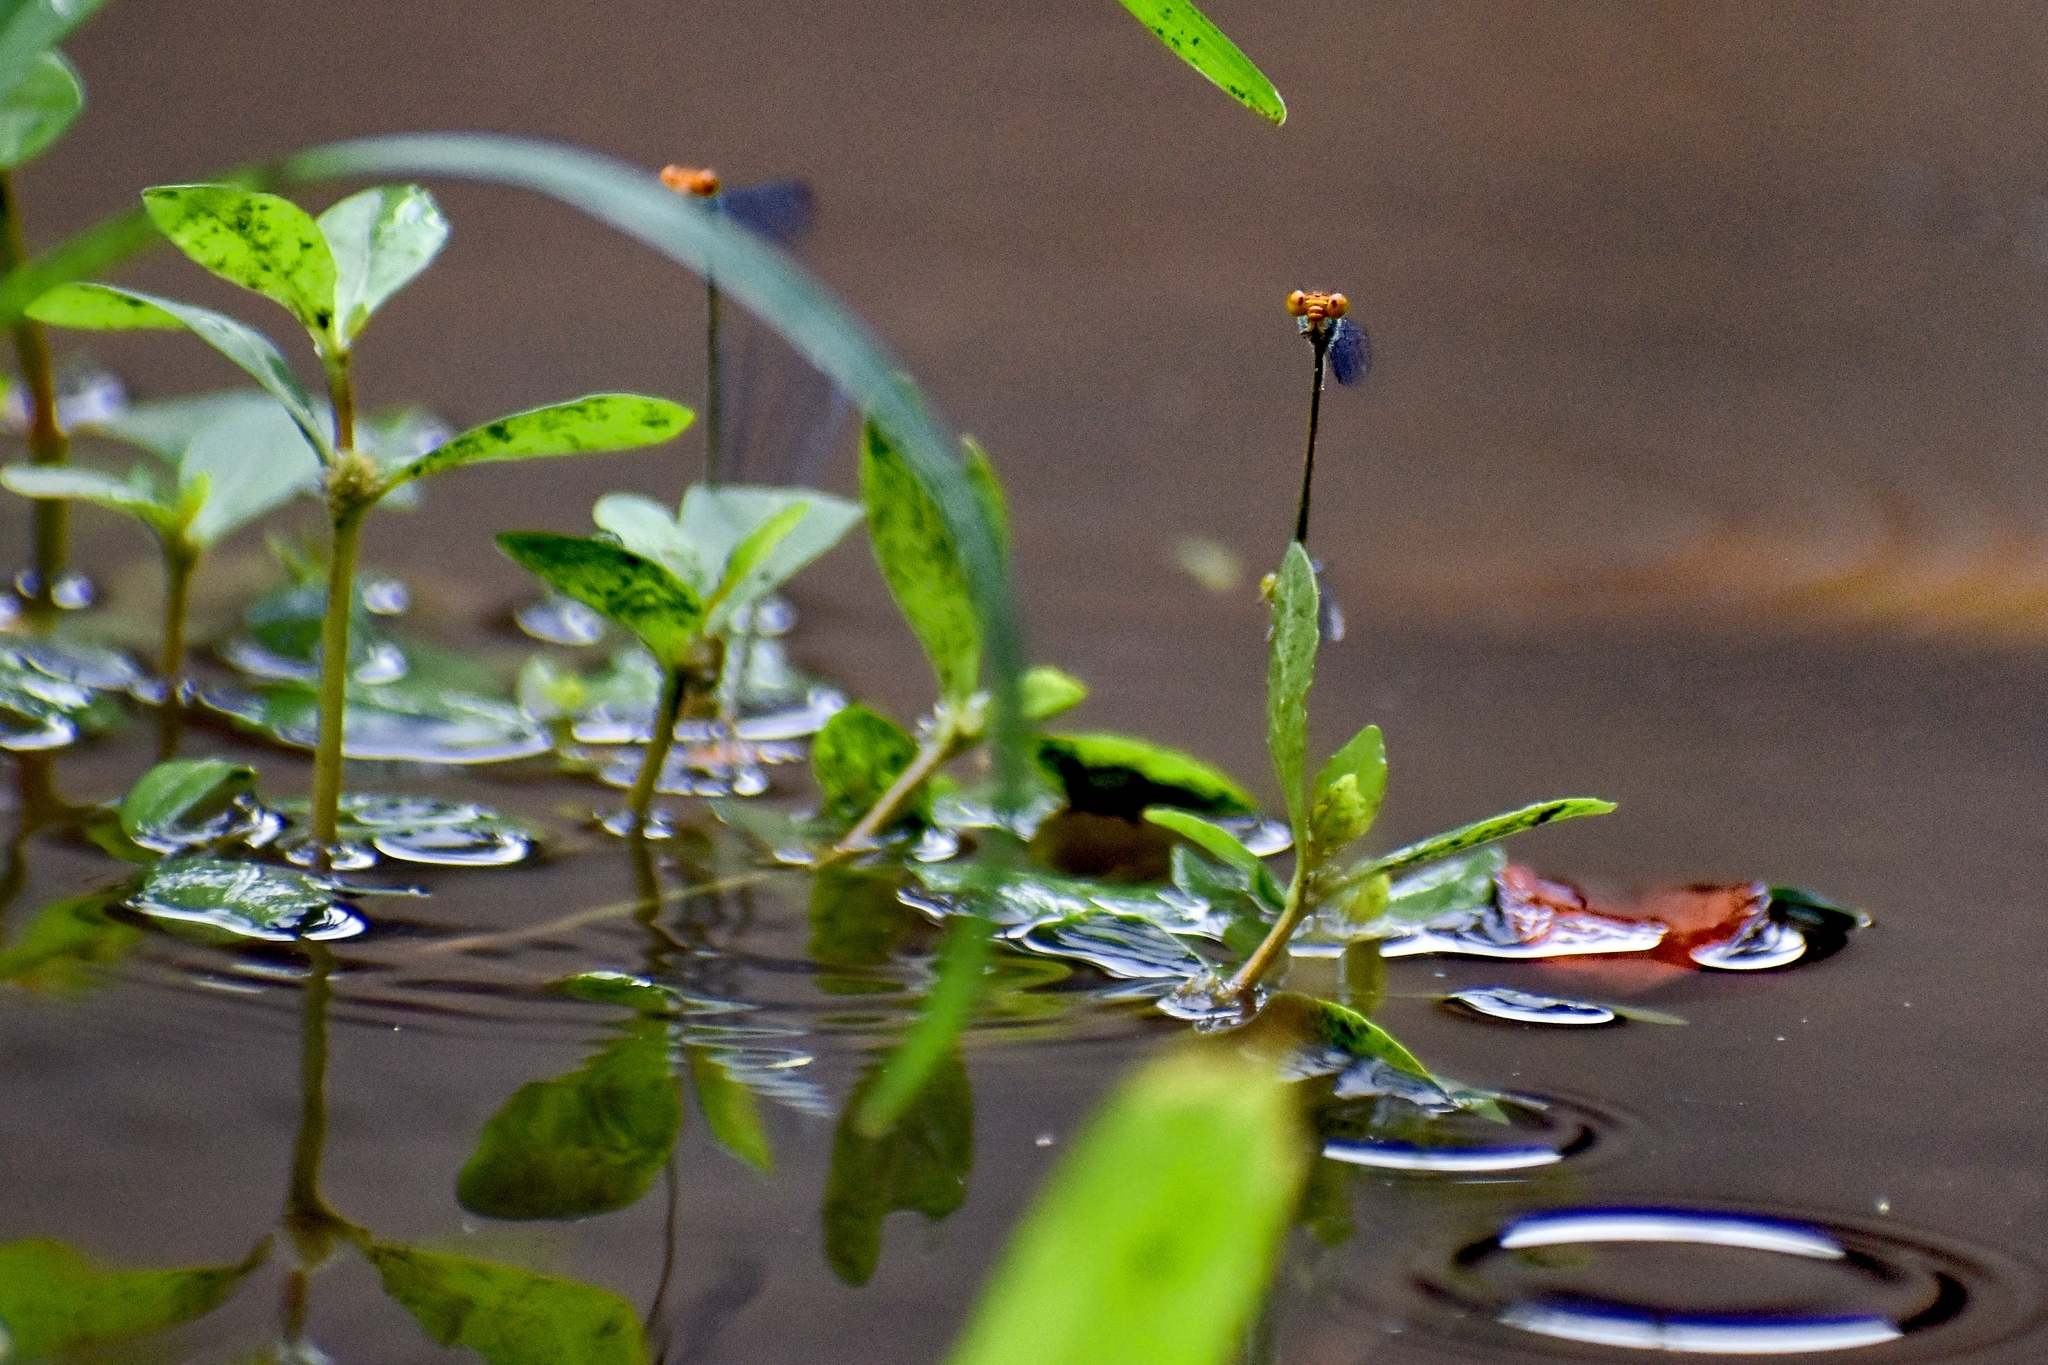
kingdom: Animalia
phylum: Arthropoda
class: Insecta
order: Odonata
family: Coenagrionidae
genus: Pseudagrion
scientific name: Pseudagrion rubriceps
